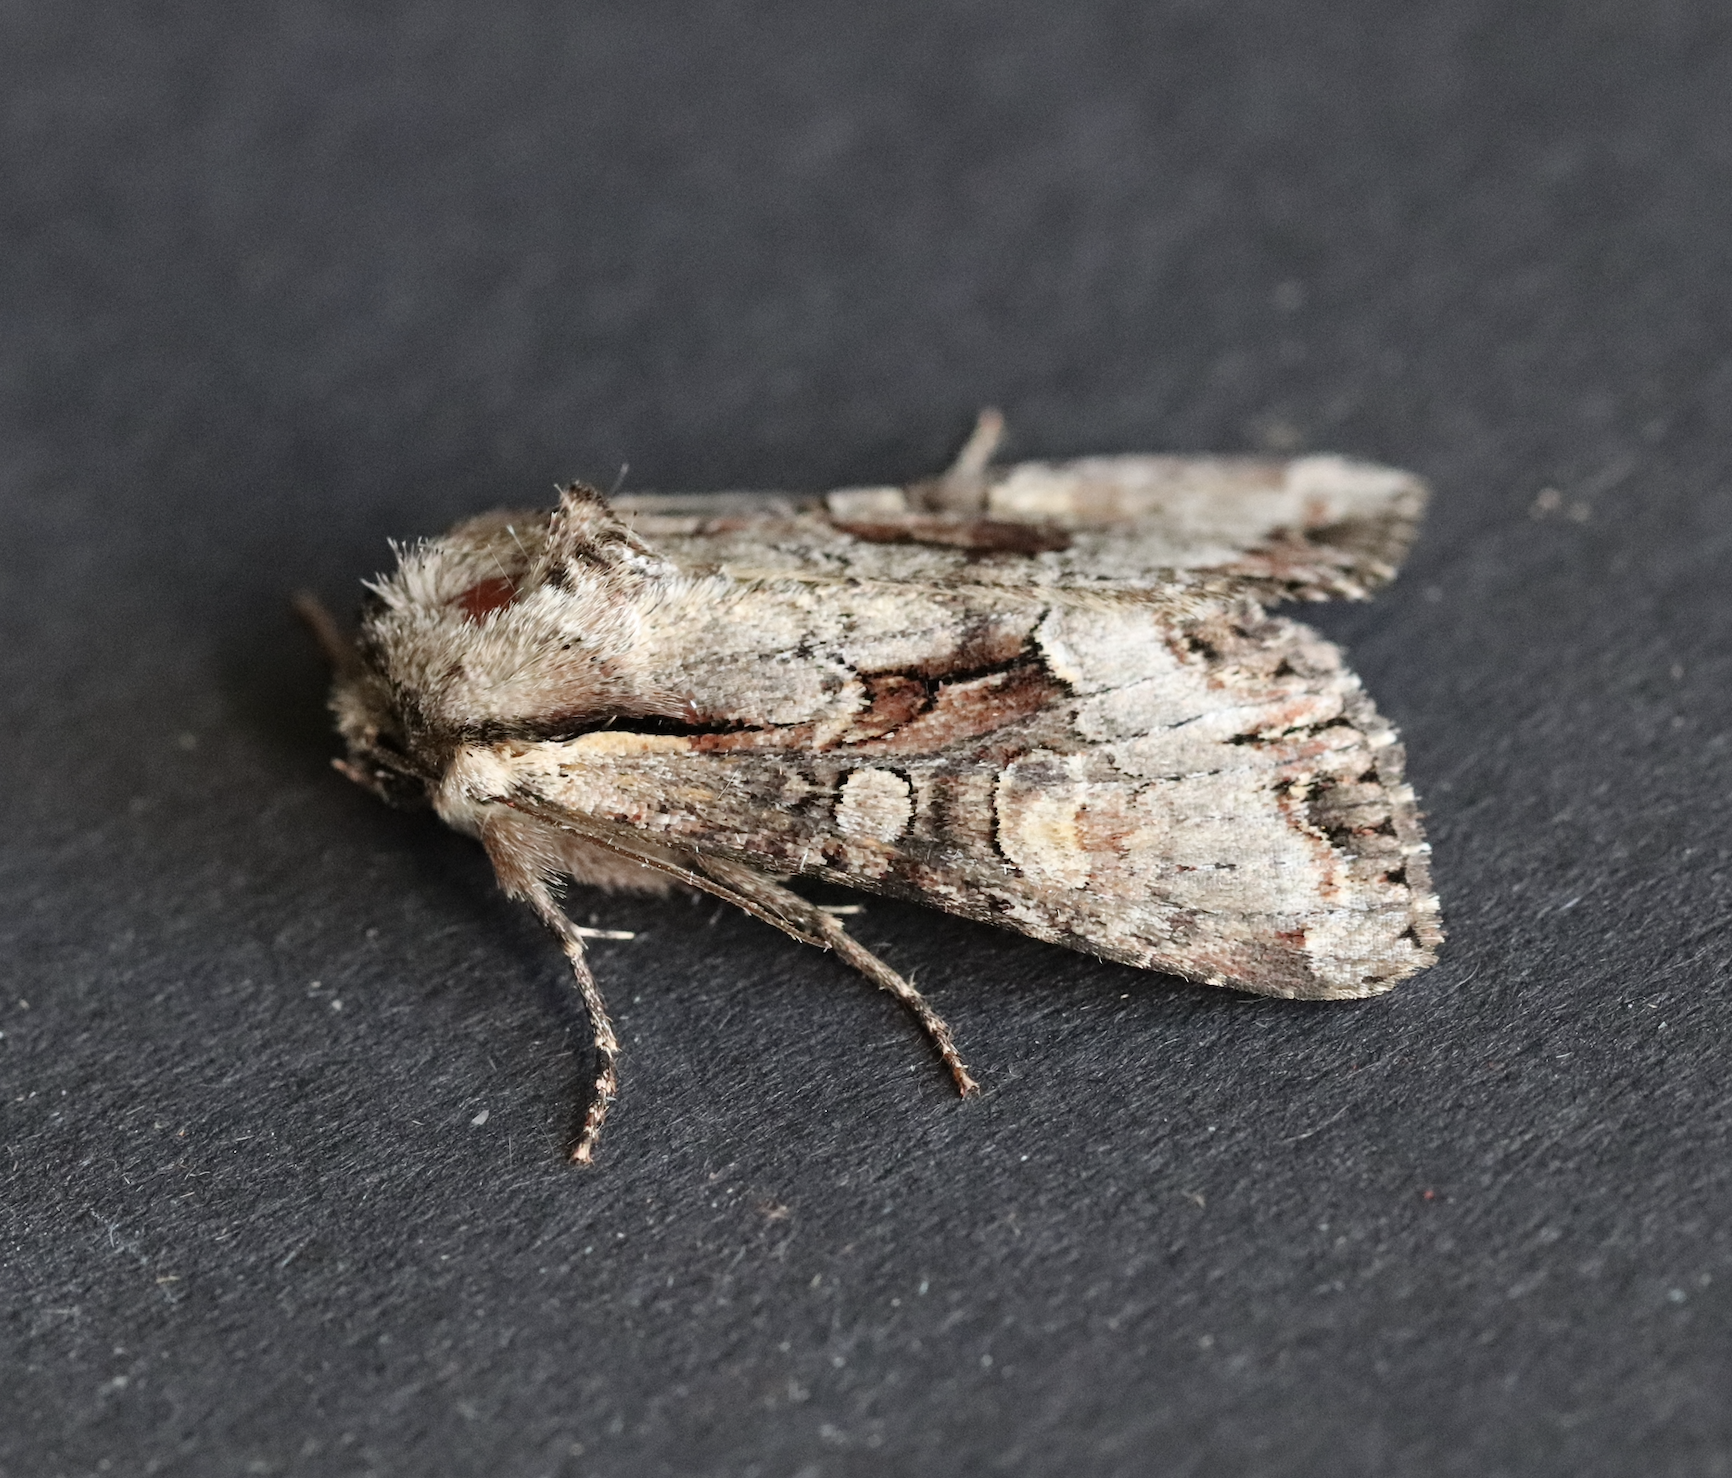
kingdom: Animalia
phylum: Arthropoda
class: Insecta
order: Lepidoptera
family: Noctuidae
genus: Lacanobia
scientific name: Lacanobia w-latinum
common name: Light brocade
